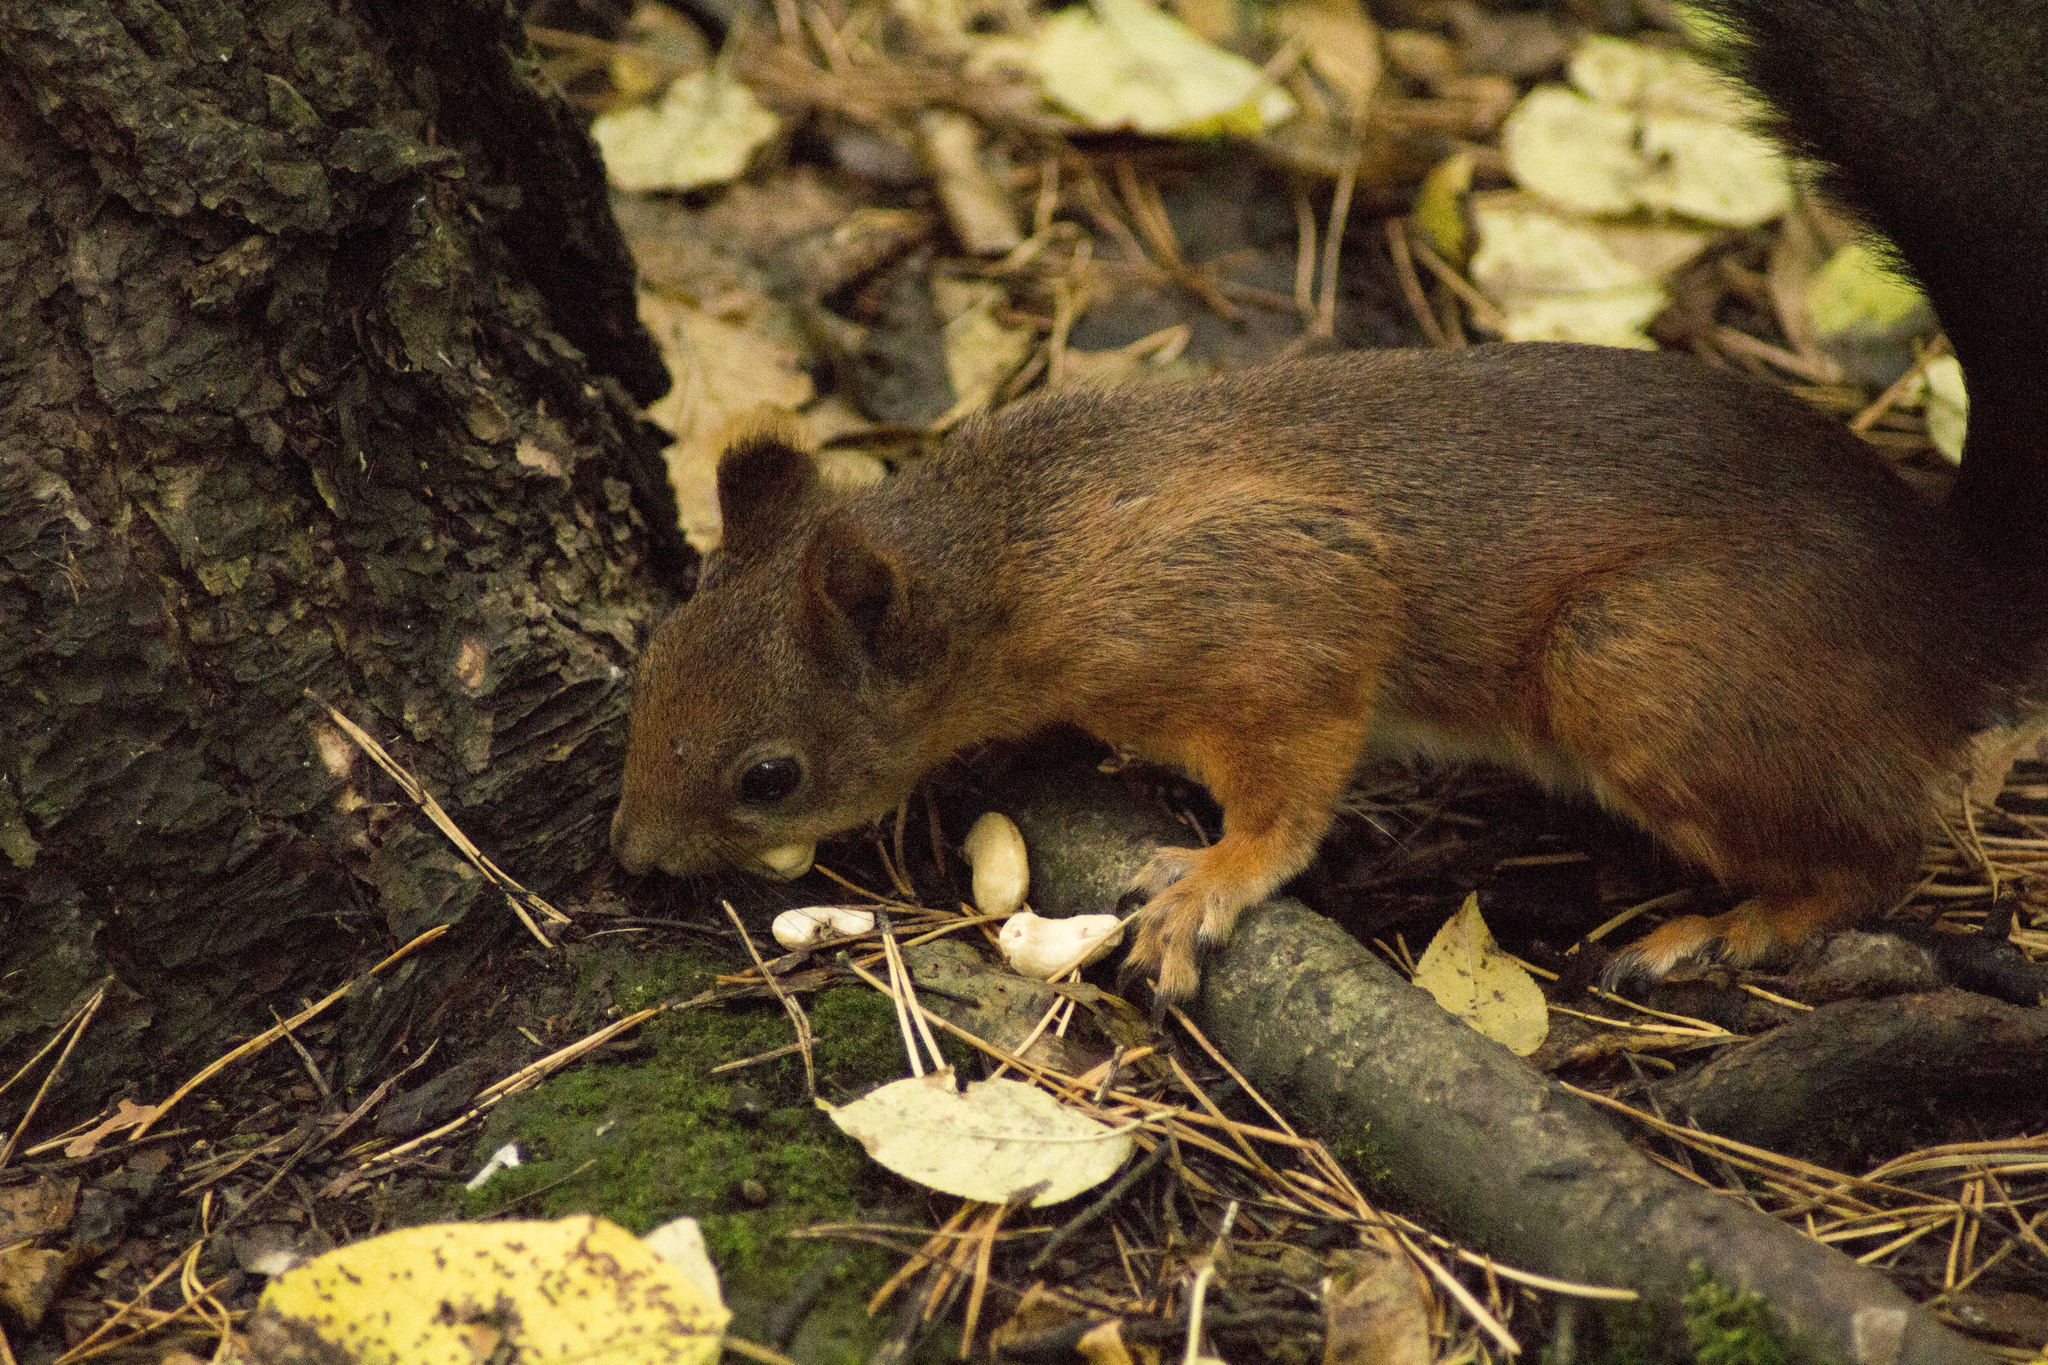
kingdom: Animalia
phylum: Chordata
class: Mammalia
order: Rodentia
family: Sciuridae
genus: Sciurus
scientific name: Sciurus vulgaris
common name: Eurasian red squirrel
